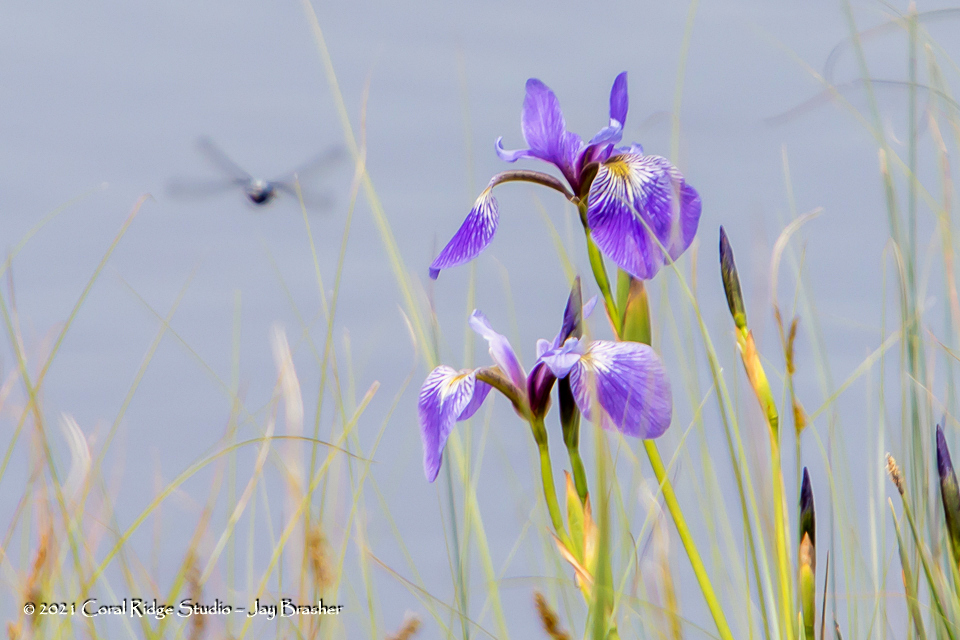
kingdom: Plantae
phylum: Tracheophyta
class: Liliopsida
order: Asparagales
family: Iridaceae
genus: Iris
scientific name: Iris versicolor
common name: Purple iris
